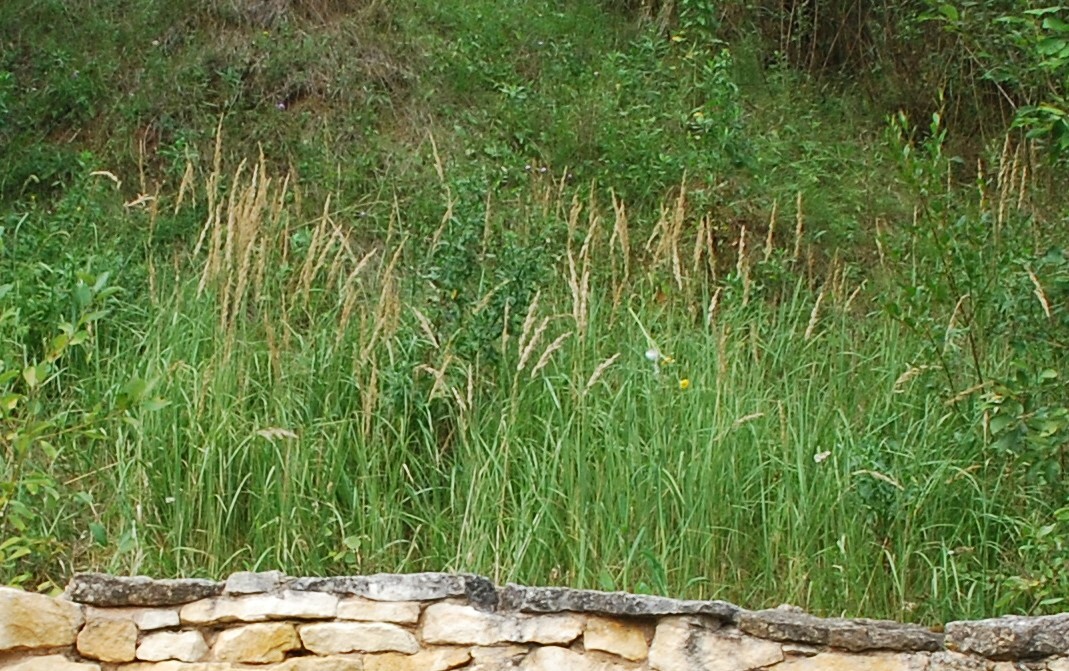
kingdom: Plantae
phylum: Tracheophyta
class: Liliopsida
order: Poales
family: Poaceae
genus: Calamagrostis
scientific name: Calamagrostis epigejos
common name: Wood small-reed
